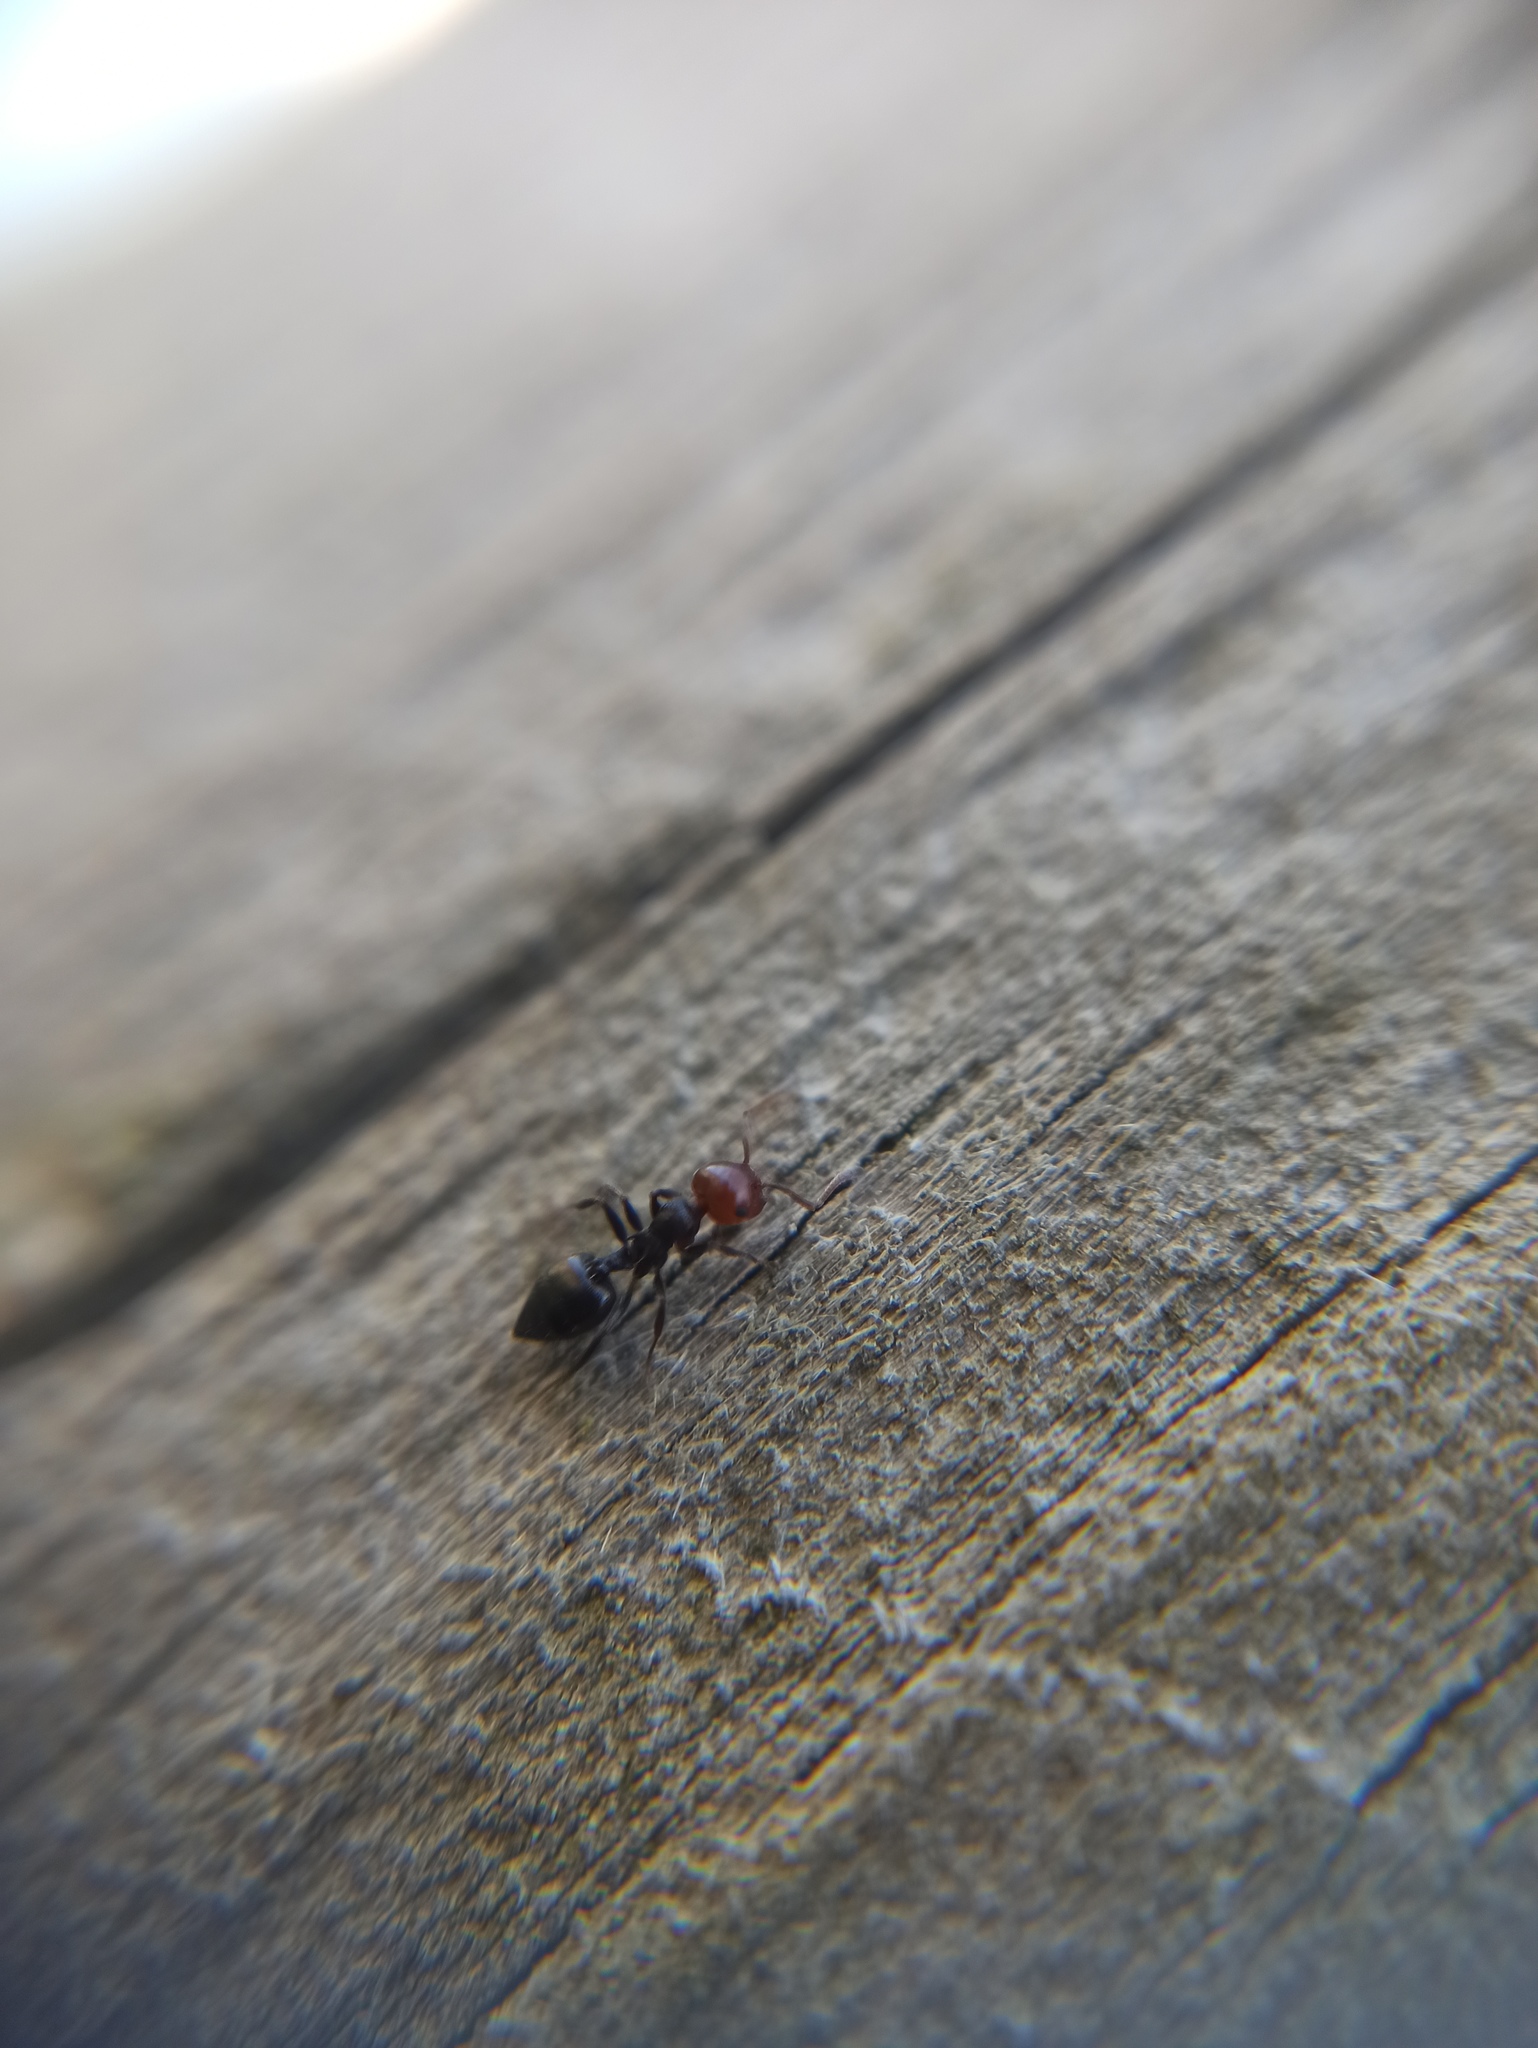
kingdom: Animalia
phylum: Arthropoda
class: Insecta
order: Hymenoptera
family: Formicidae
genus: Crematogaster
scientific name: Crematogaster scutellaris
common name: Fourmi du liège
